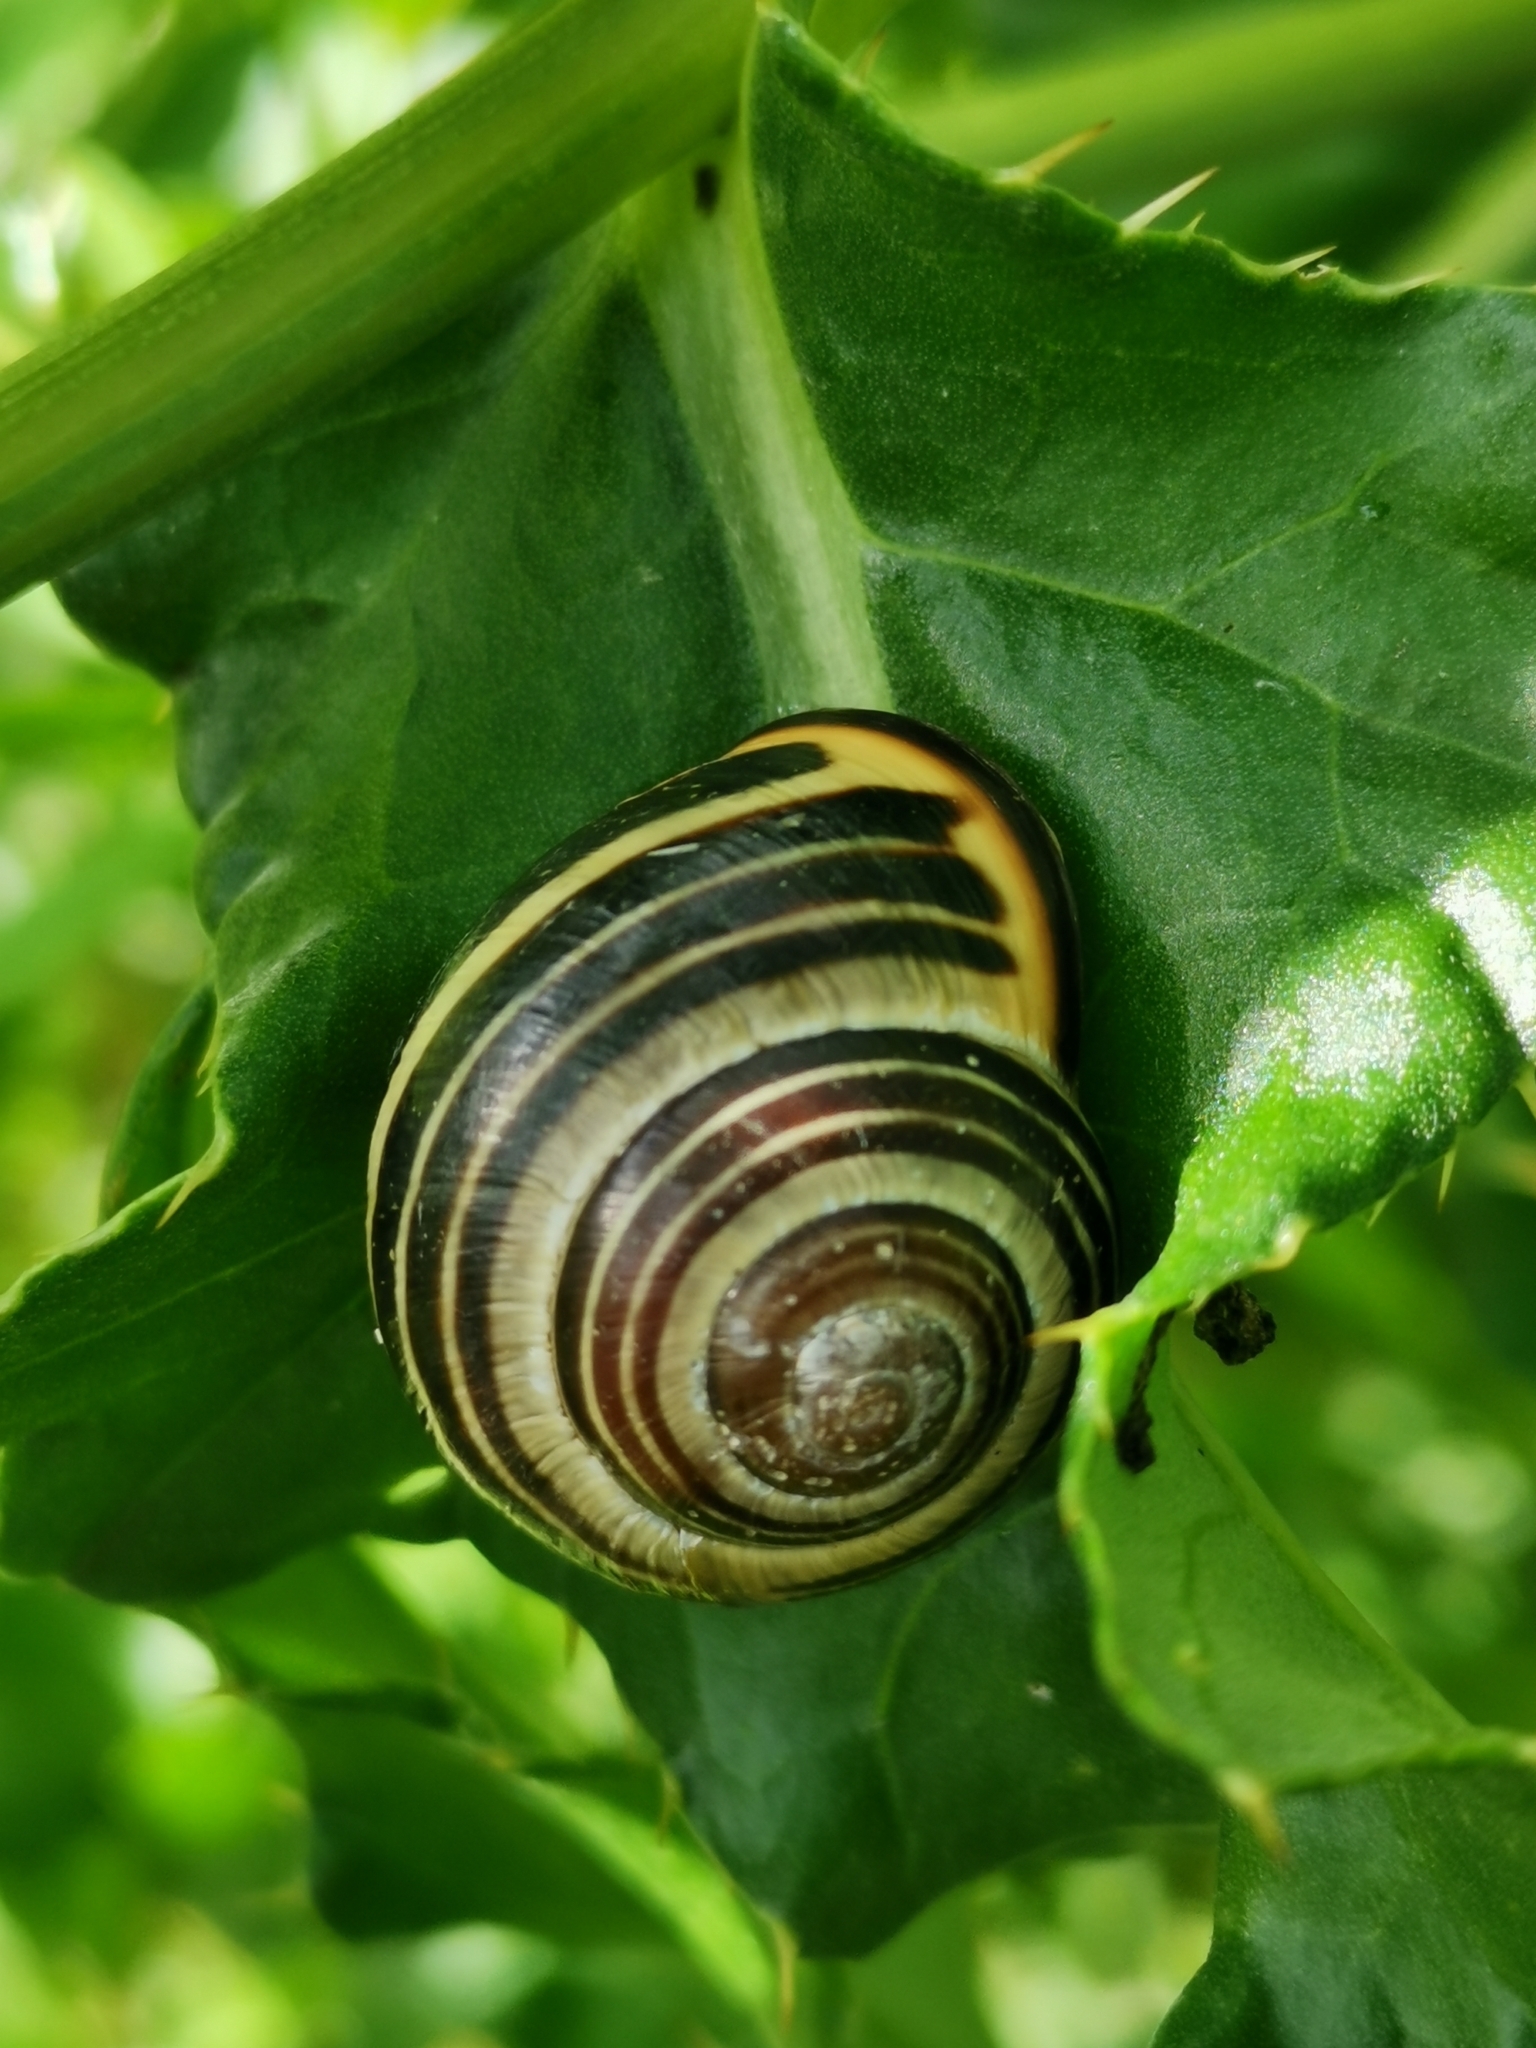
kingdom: Animalia
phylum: Mollusca
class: Gastropoda
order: Stylommatophora
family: Helicidae
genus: Cepaea
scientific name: Cepaea nemoralis
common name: Grovesnail
